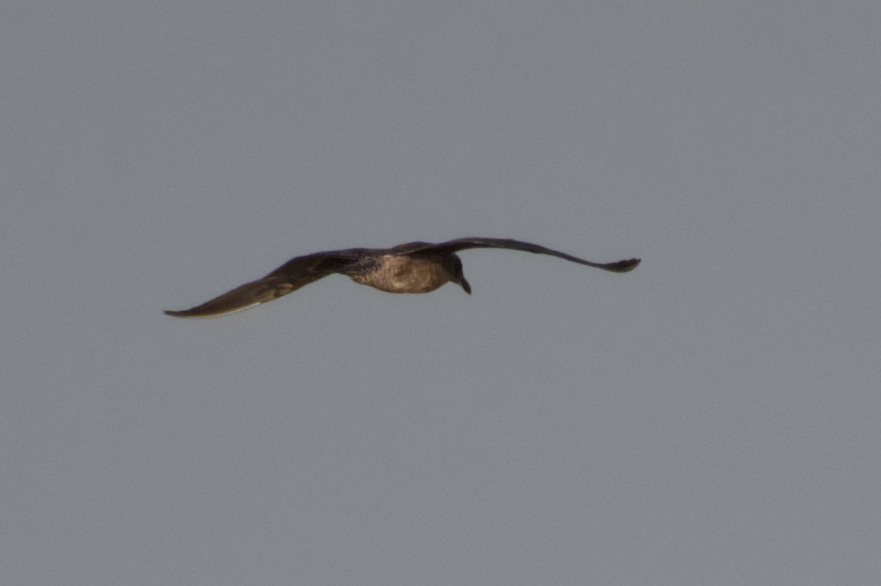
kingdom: Animalia
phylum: Chordata
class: Aves
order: Charadriiformes
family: Laridae
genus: Larus
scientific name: Larus occidentalis
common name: Western gull
